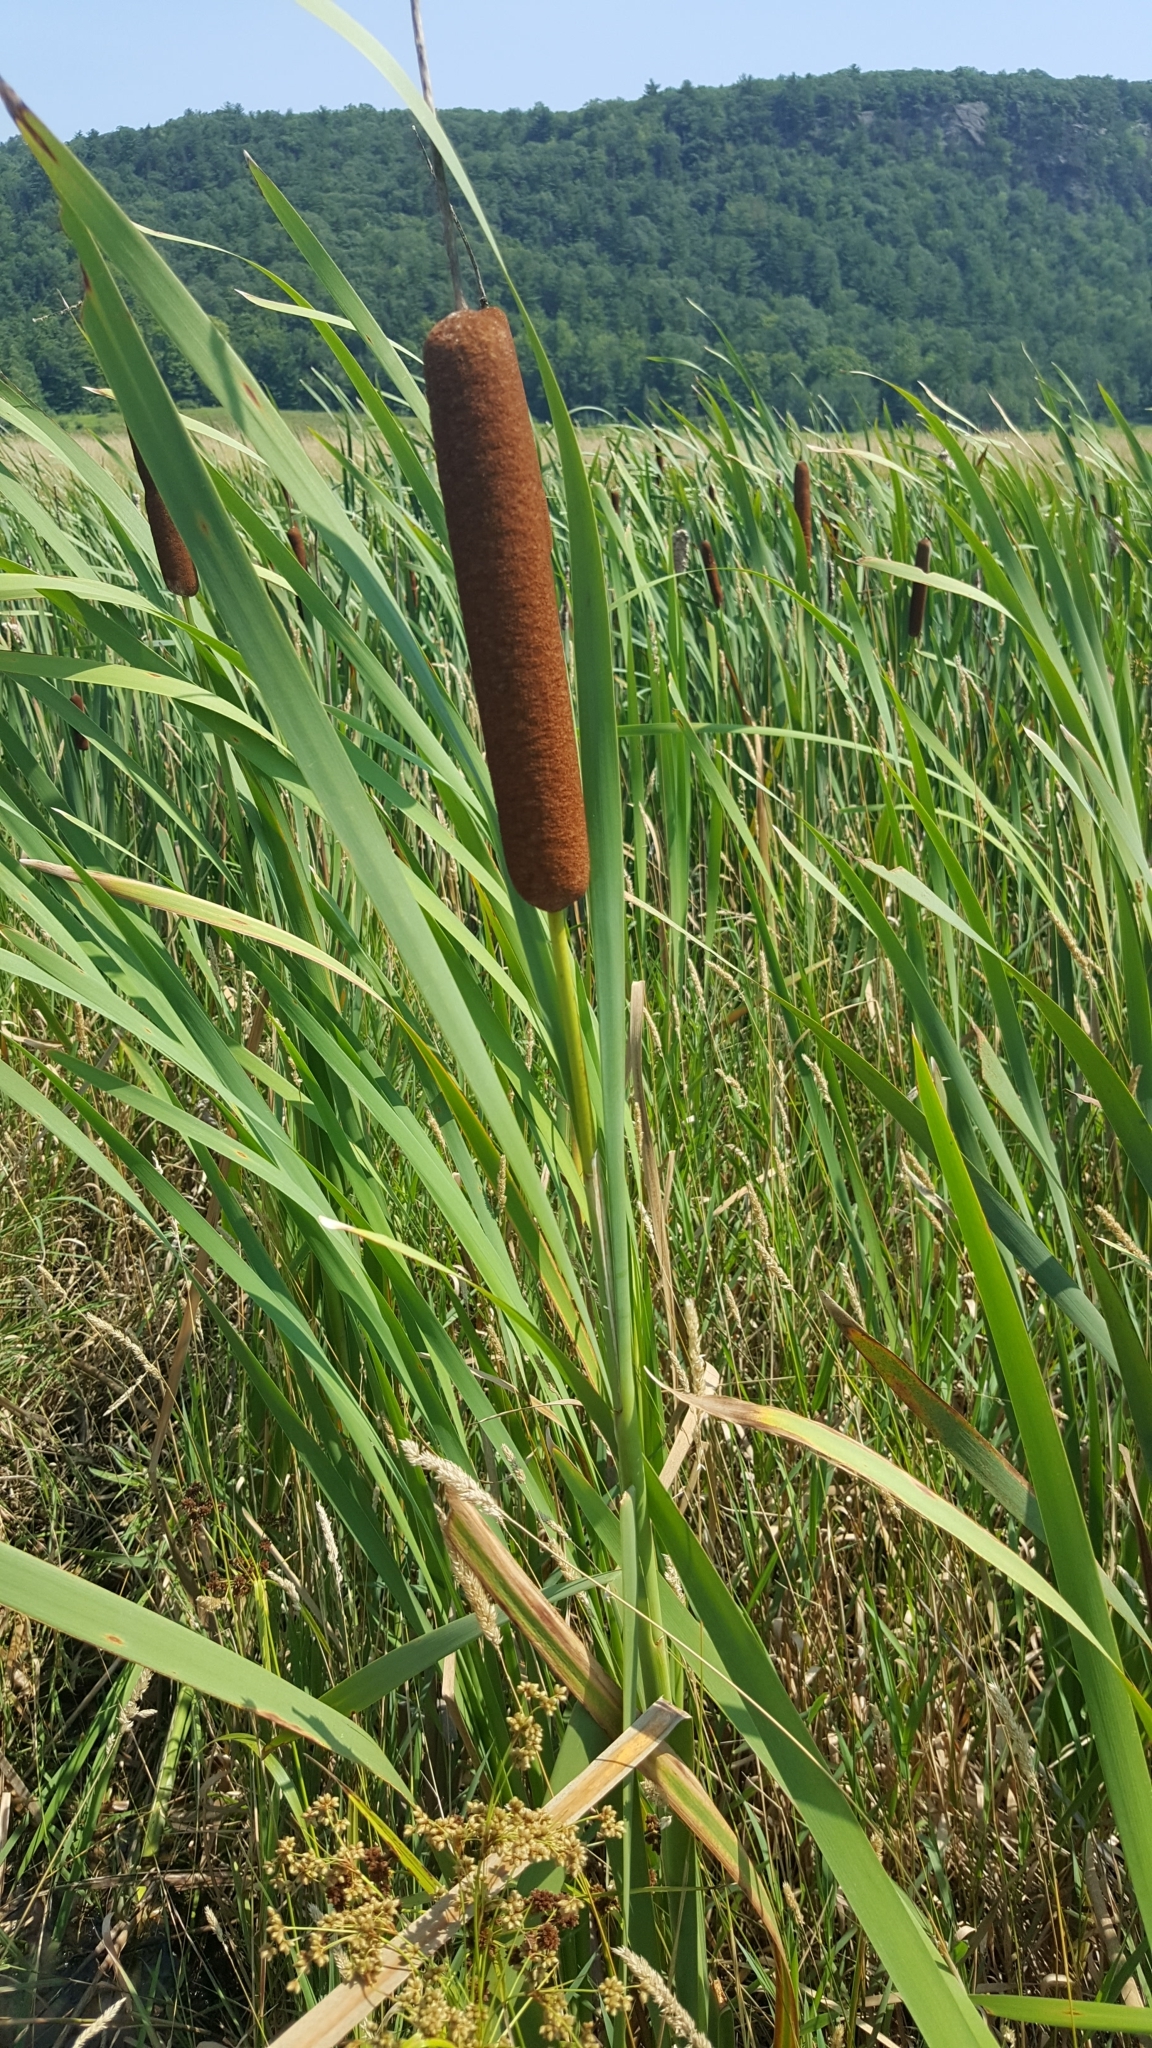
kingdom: Plantae
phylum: Tracheophyta
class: Liliopsida
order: Poales
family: Typhaceae
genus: Typha
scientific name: Typha latifolia
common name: Broadleaf cattail
